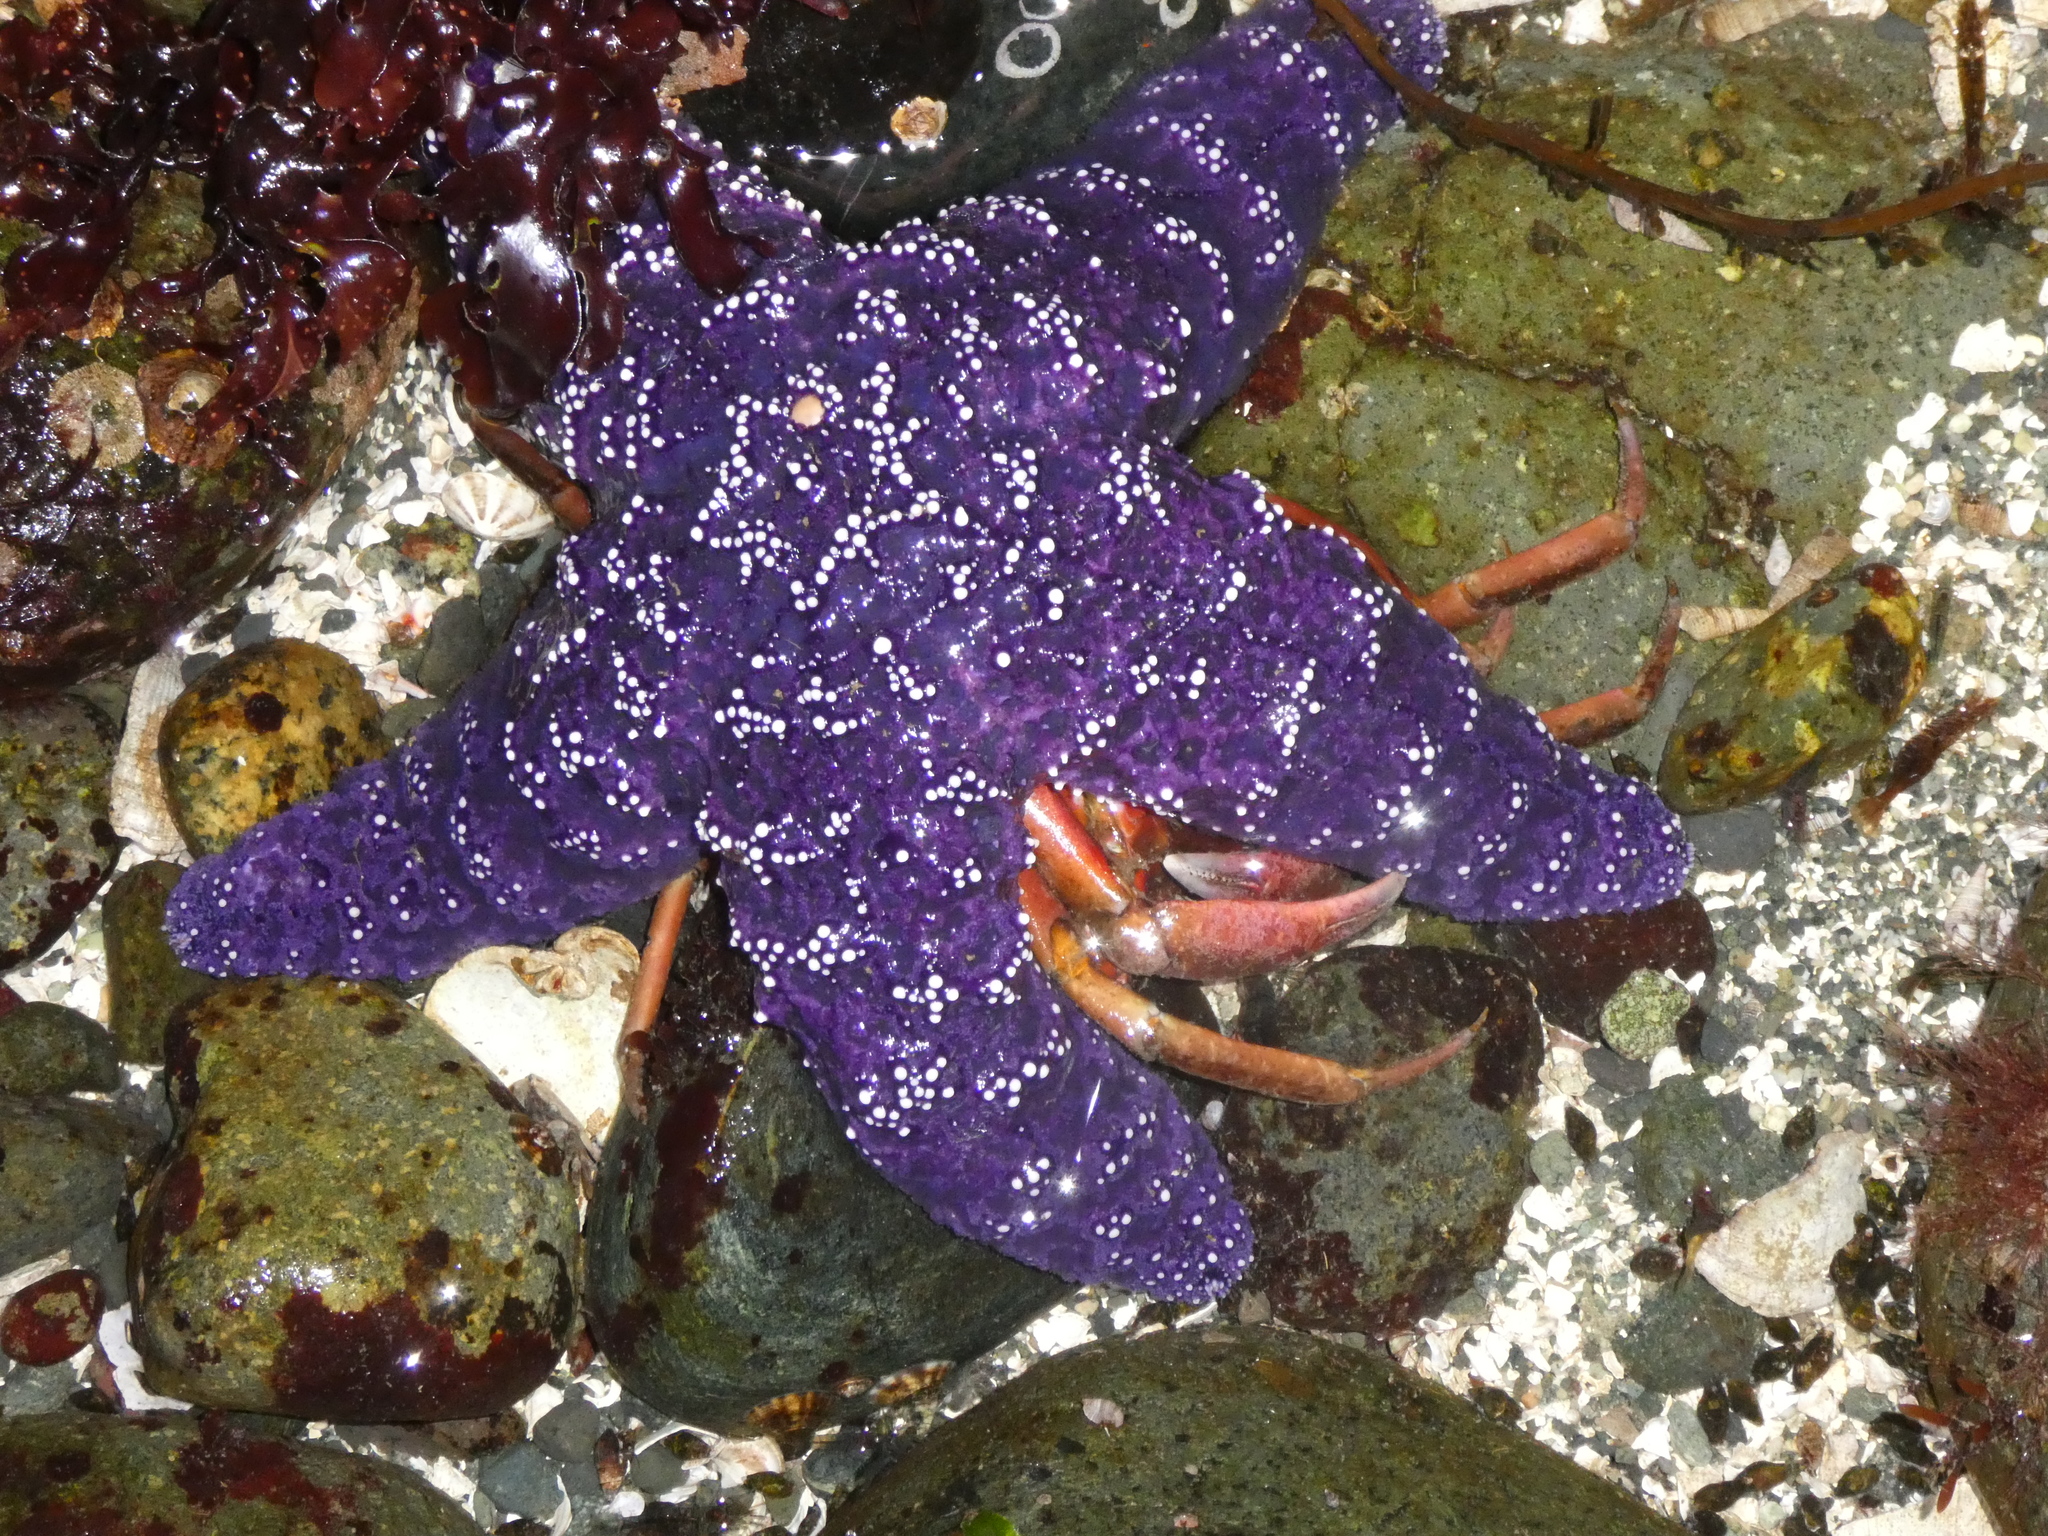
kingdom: Animalia
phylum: Echinodermata
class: Asteroidea
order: Forcipulatida
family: Asteriidae
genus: Pisaster
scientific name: Pisaster ochraceus
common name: Ochre stars
